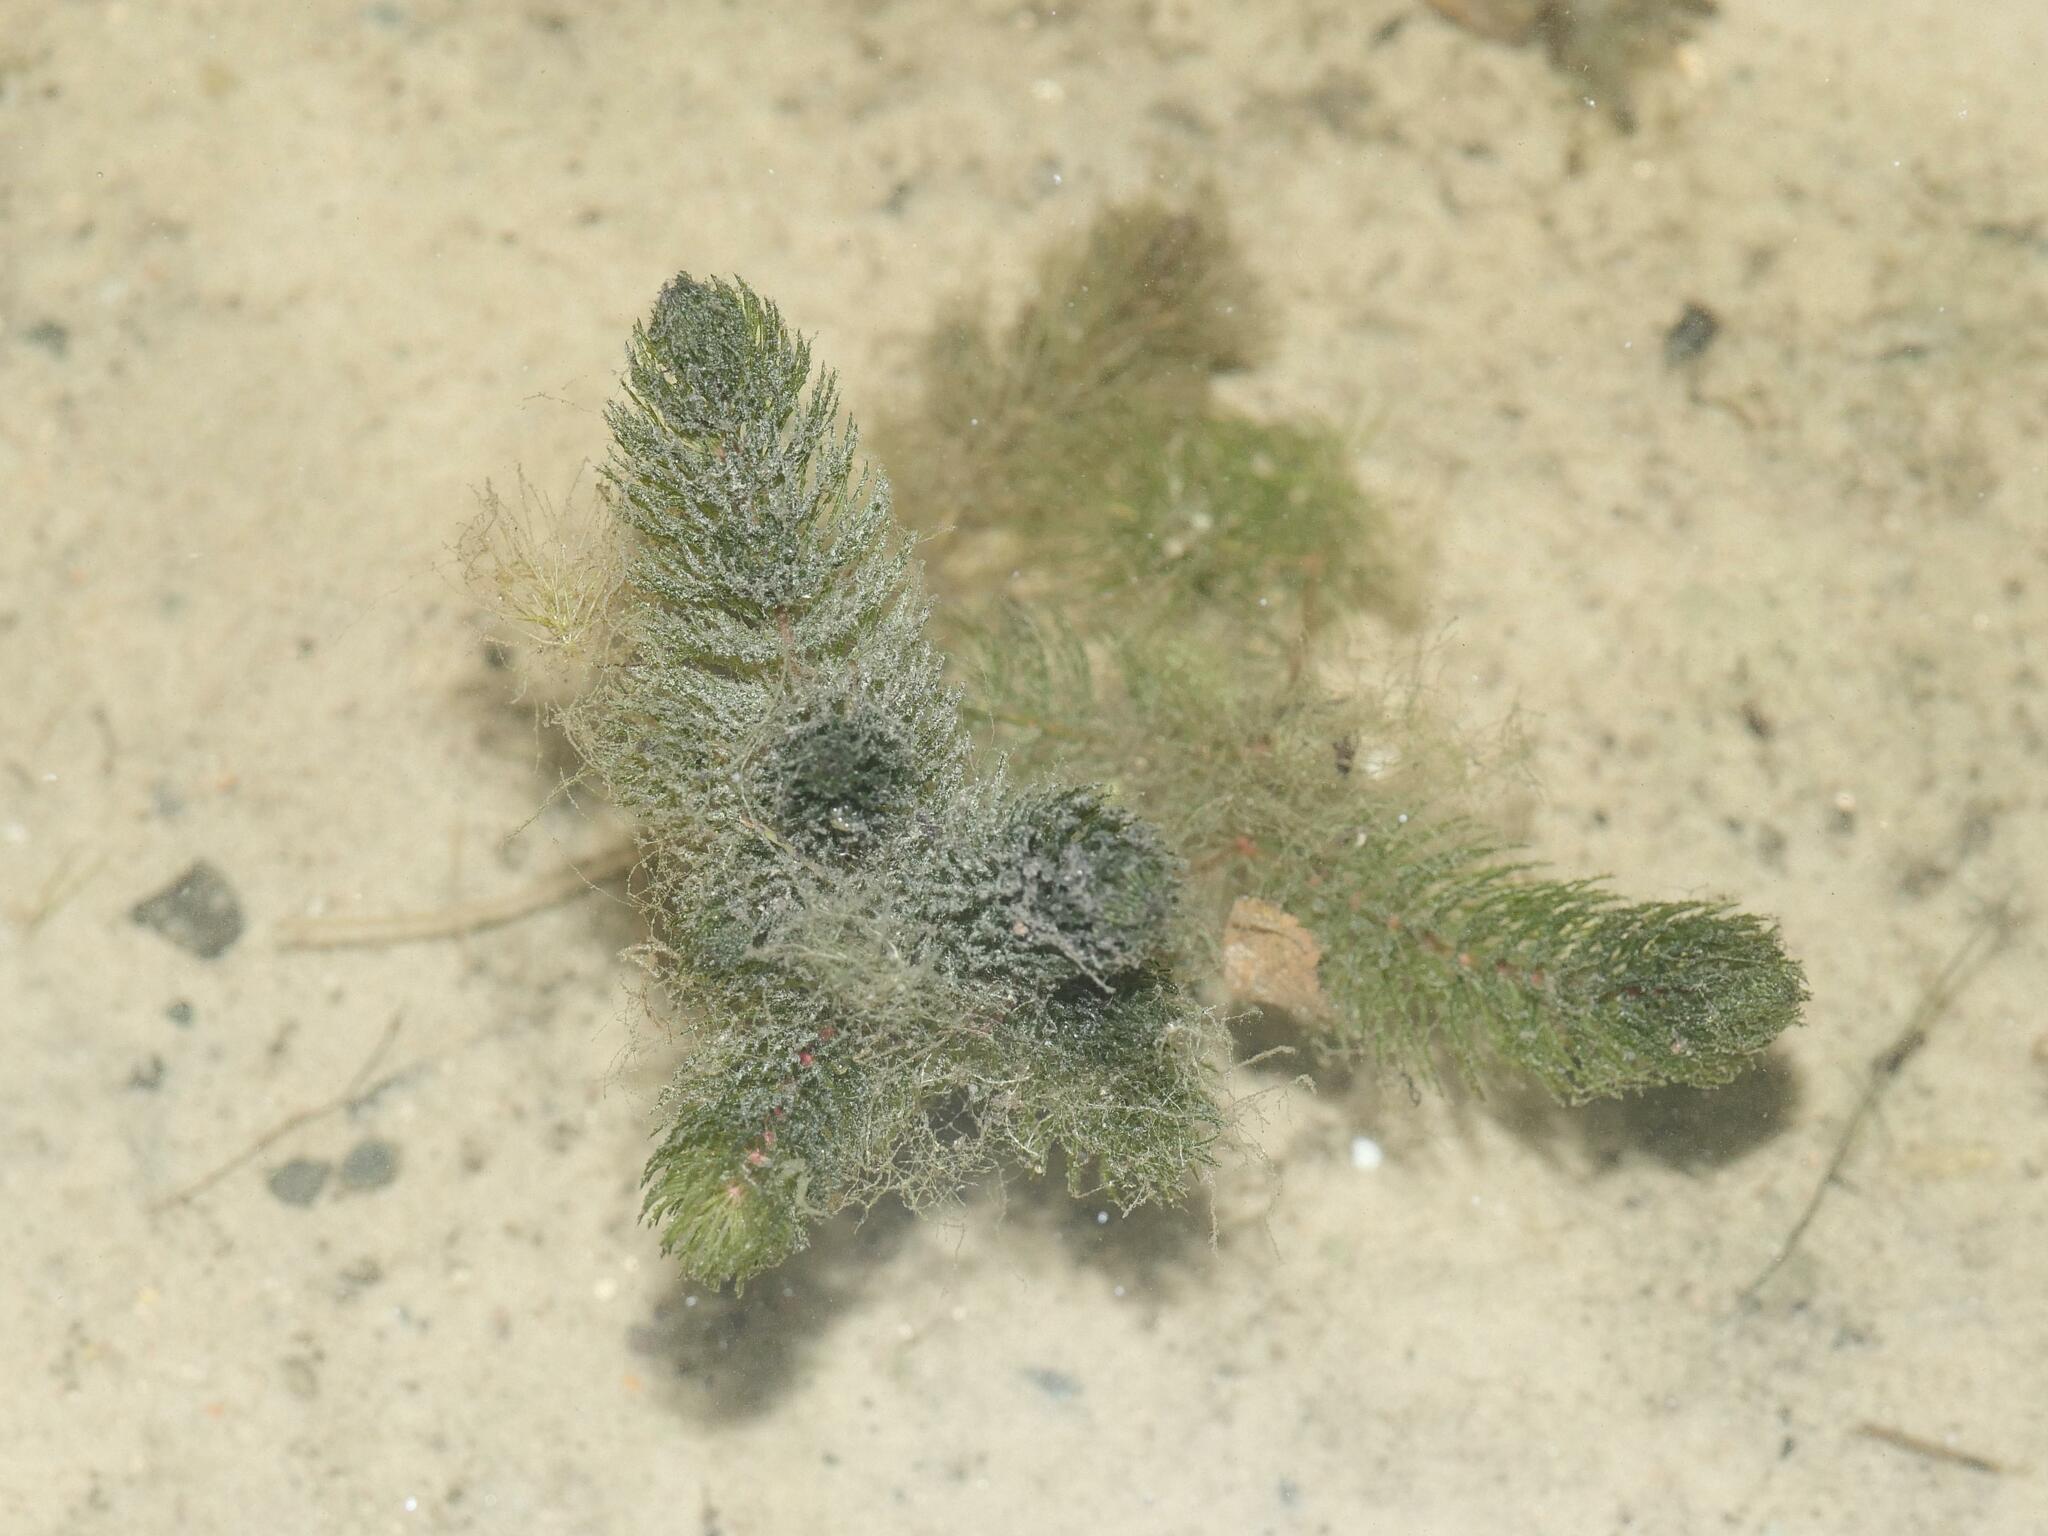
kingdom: Plantae
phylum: Tracheophyta
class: Magnoliopsida
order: Ceratophyllales
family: Ceratophyllaceae
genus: Ceratophyllum
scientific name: Ceratophyllum demersum
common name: Rigid hornwort
